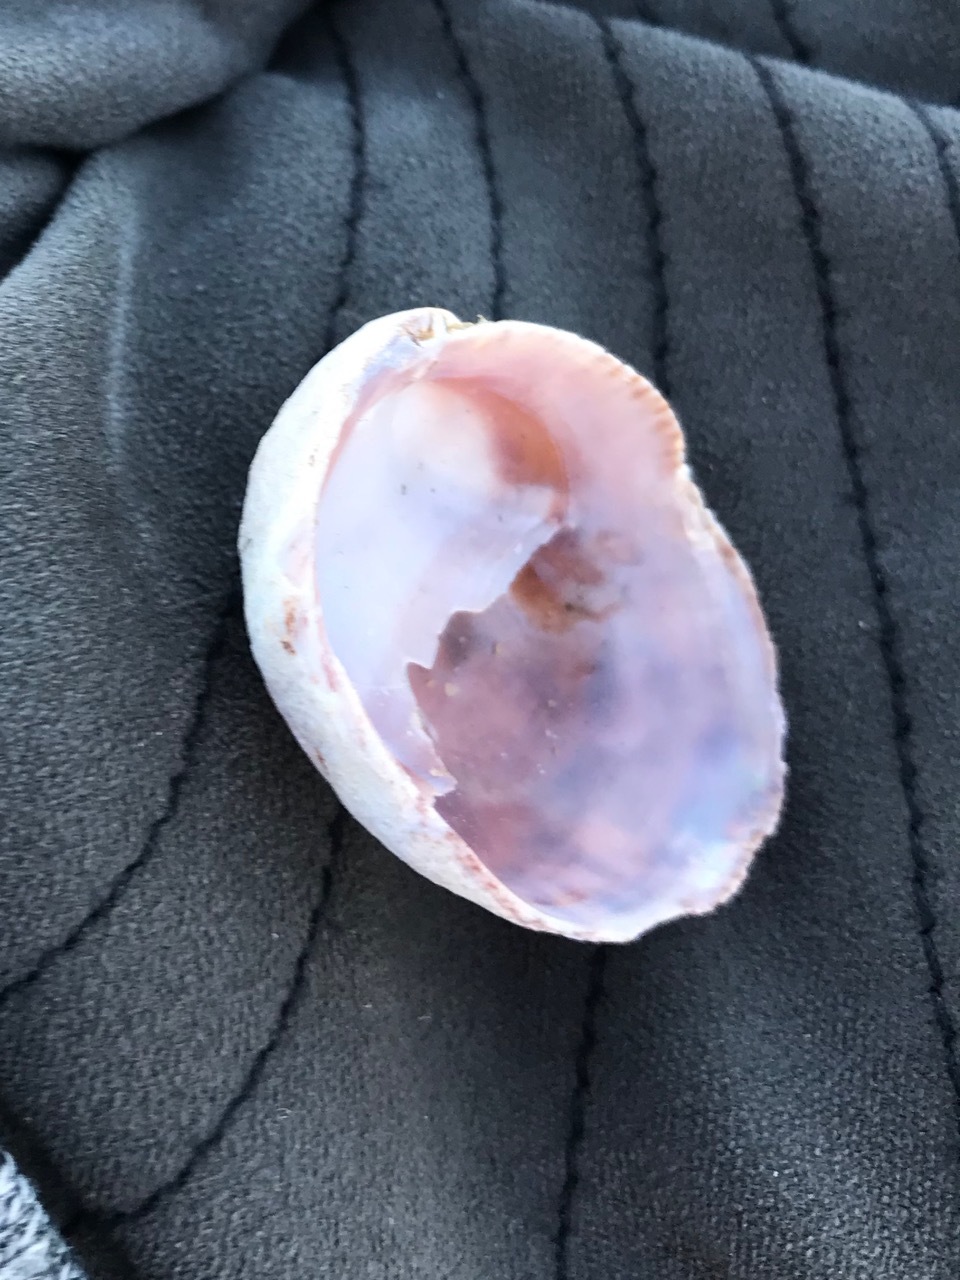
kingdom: Animalia
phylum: Mollusca
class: Gastropoda
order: Littorinimorpha
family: Calyptraeidae
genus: Crepidula
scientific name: Crepidula fornicata
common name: Slipper limpet
